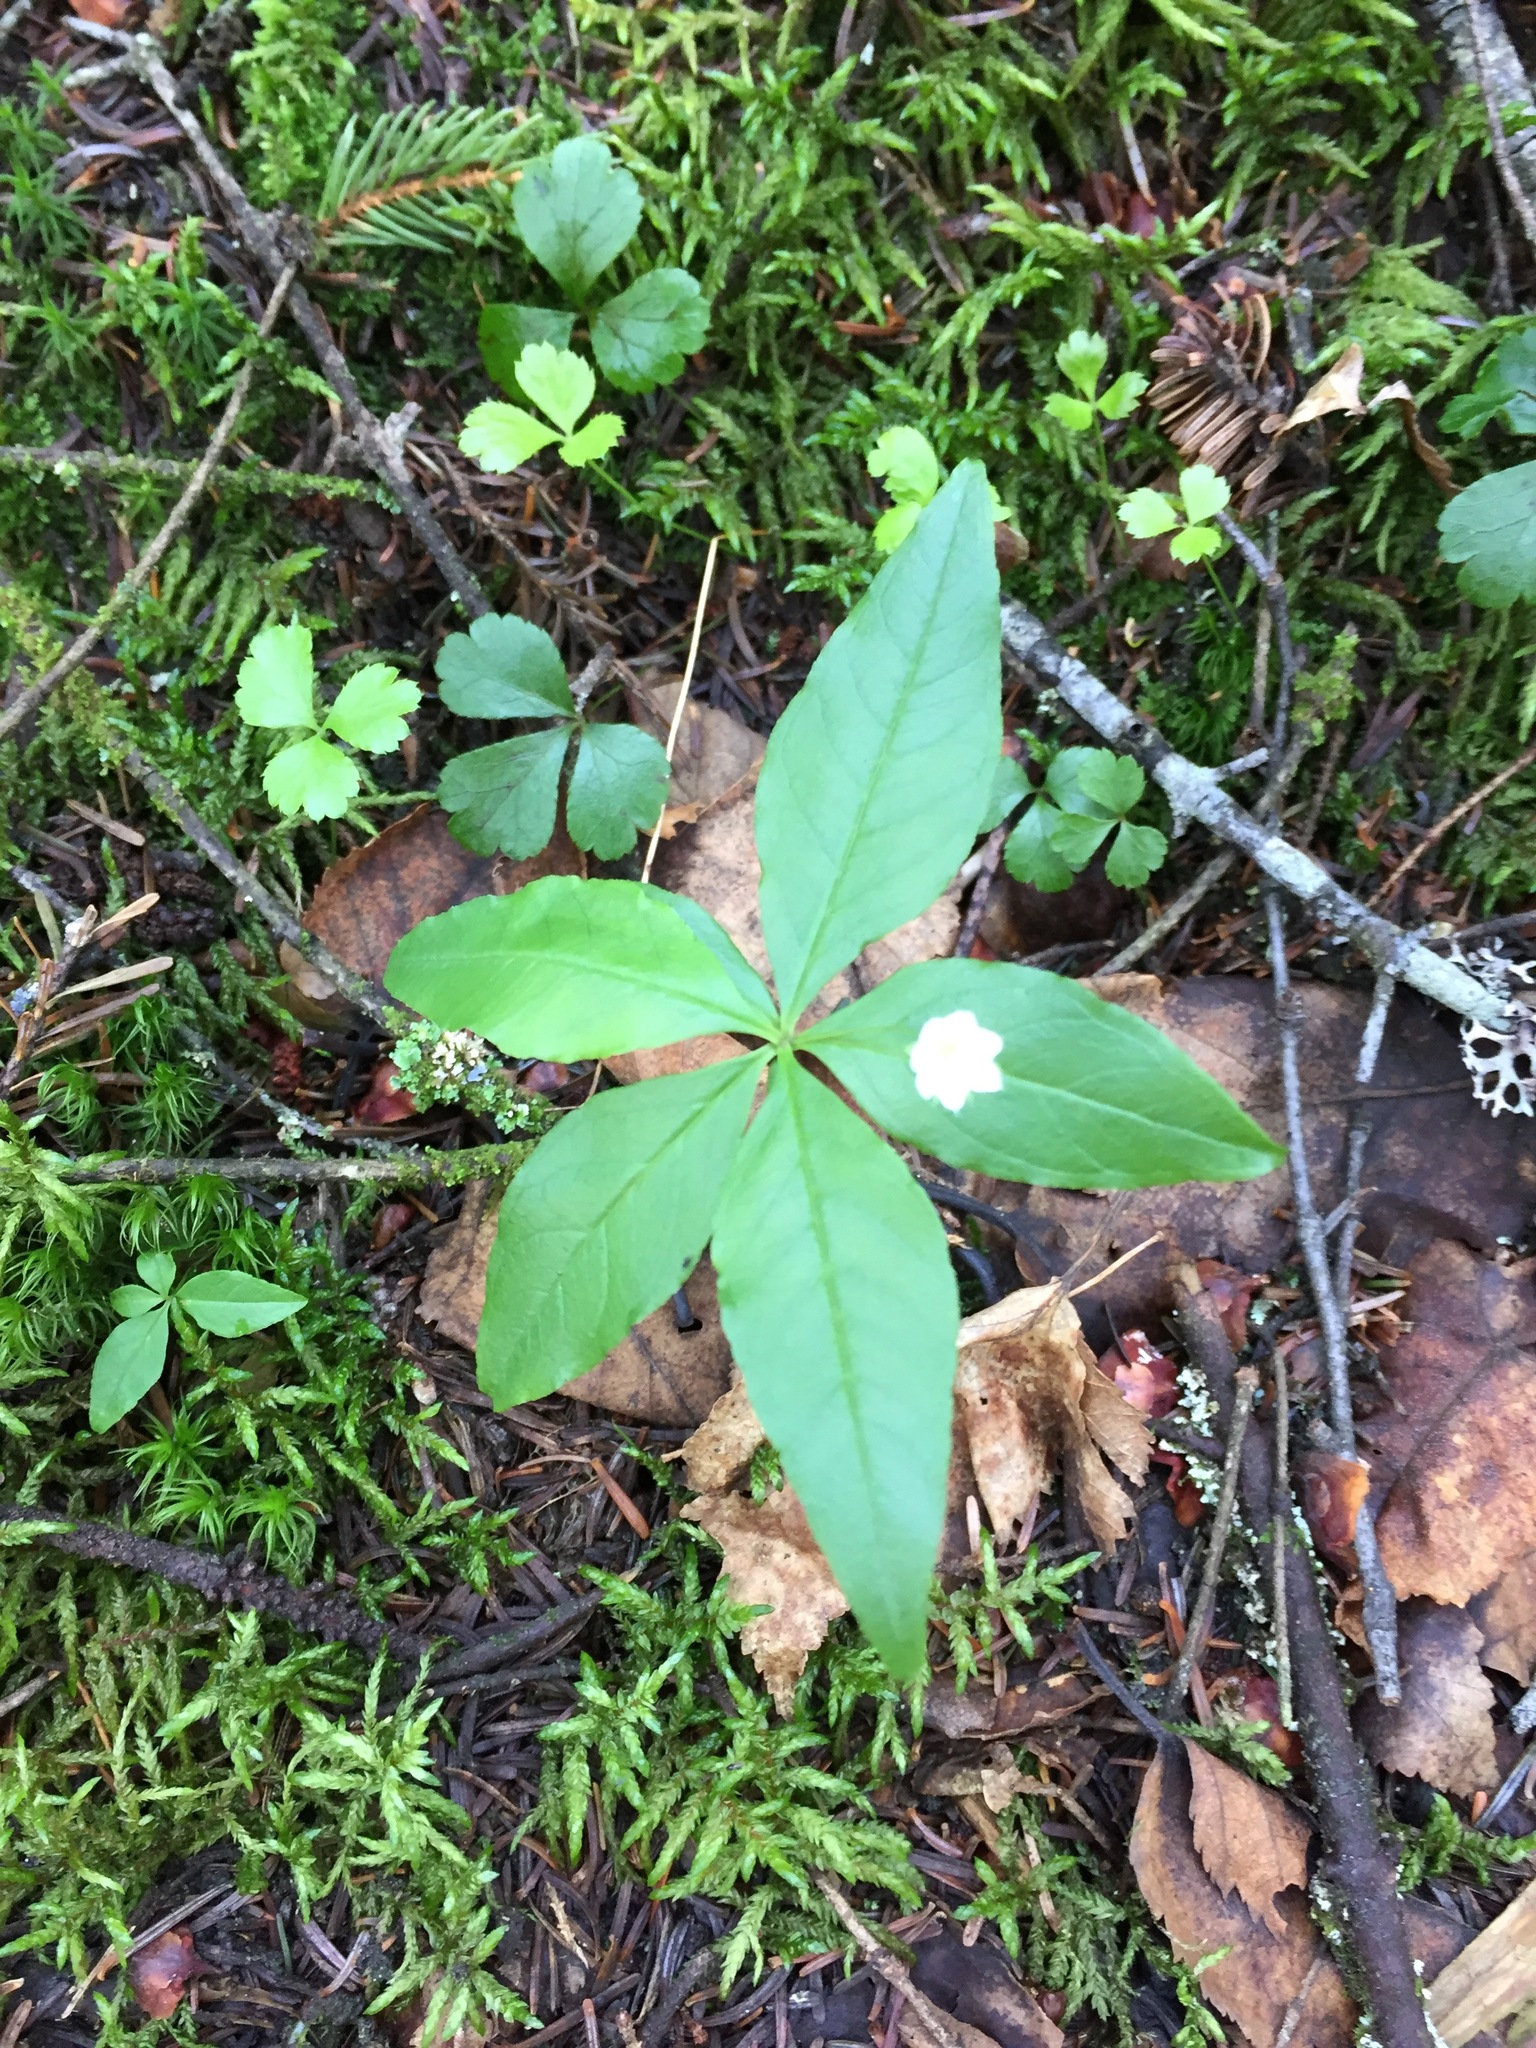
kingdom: Plantae
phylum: Tracheophyta
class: Magnoliopsida
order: Ericales
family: Primulaceae
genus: Lysimachia
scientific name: Lysimachia borealis
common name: American starflower
